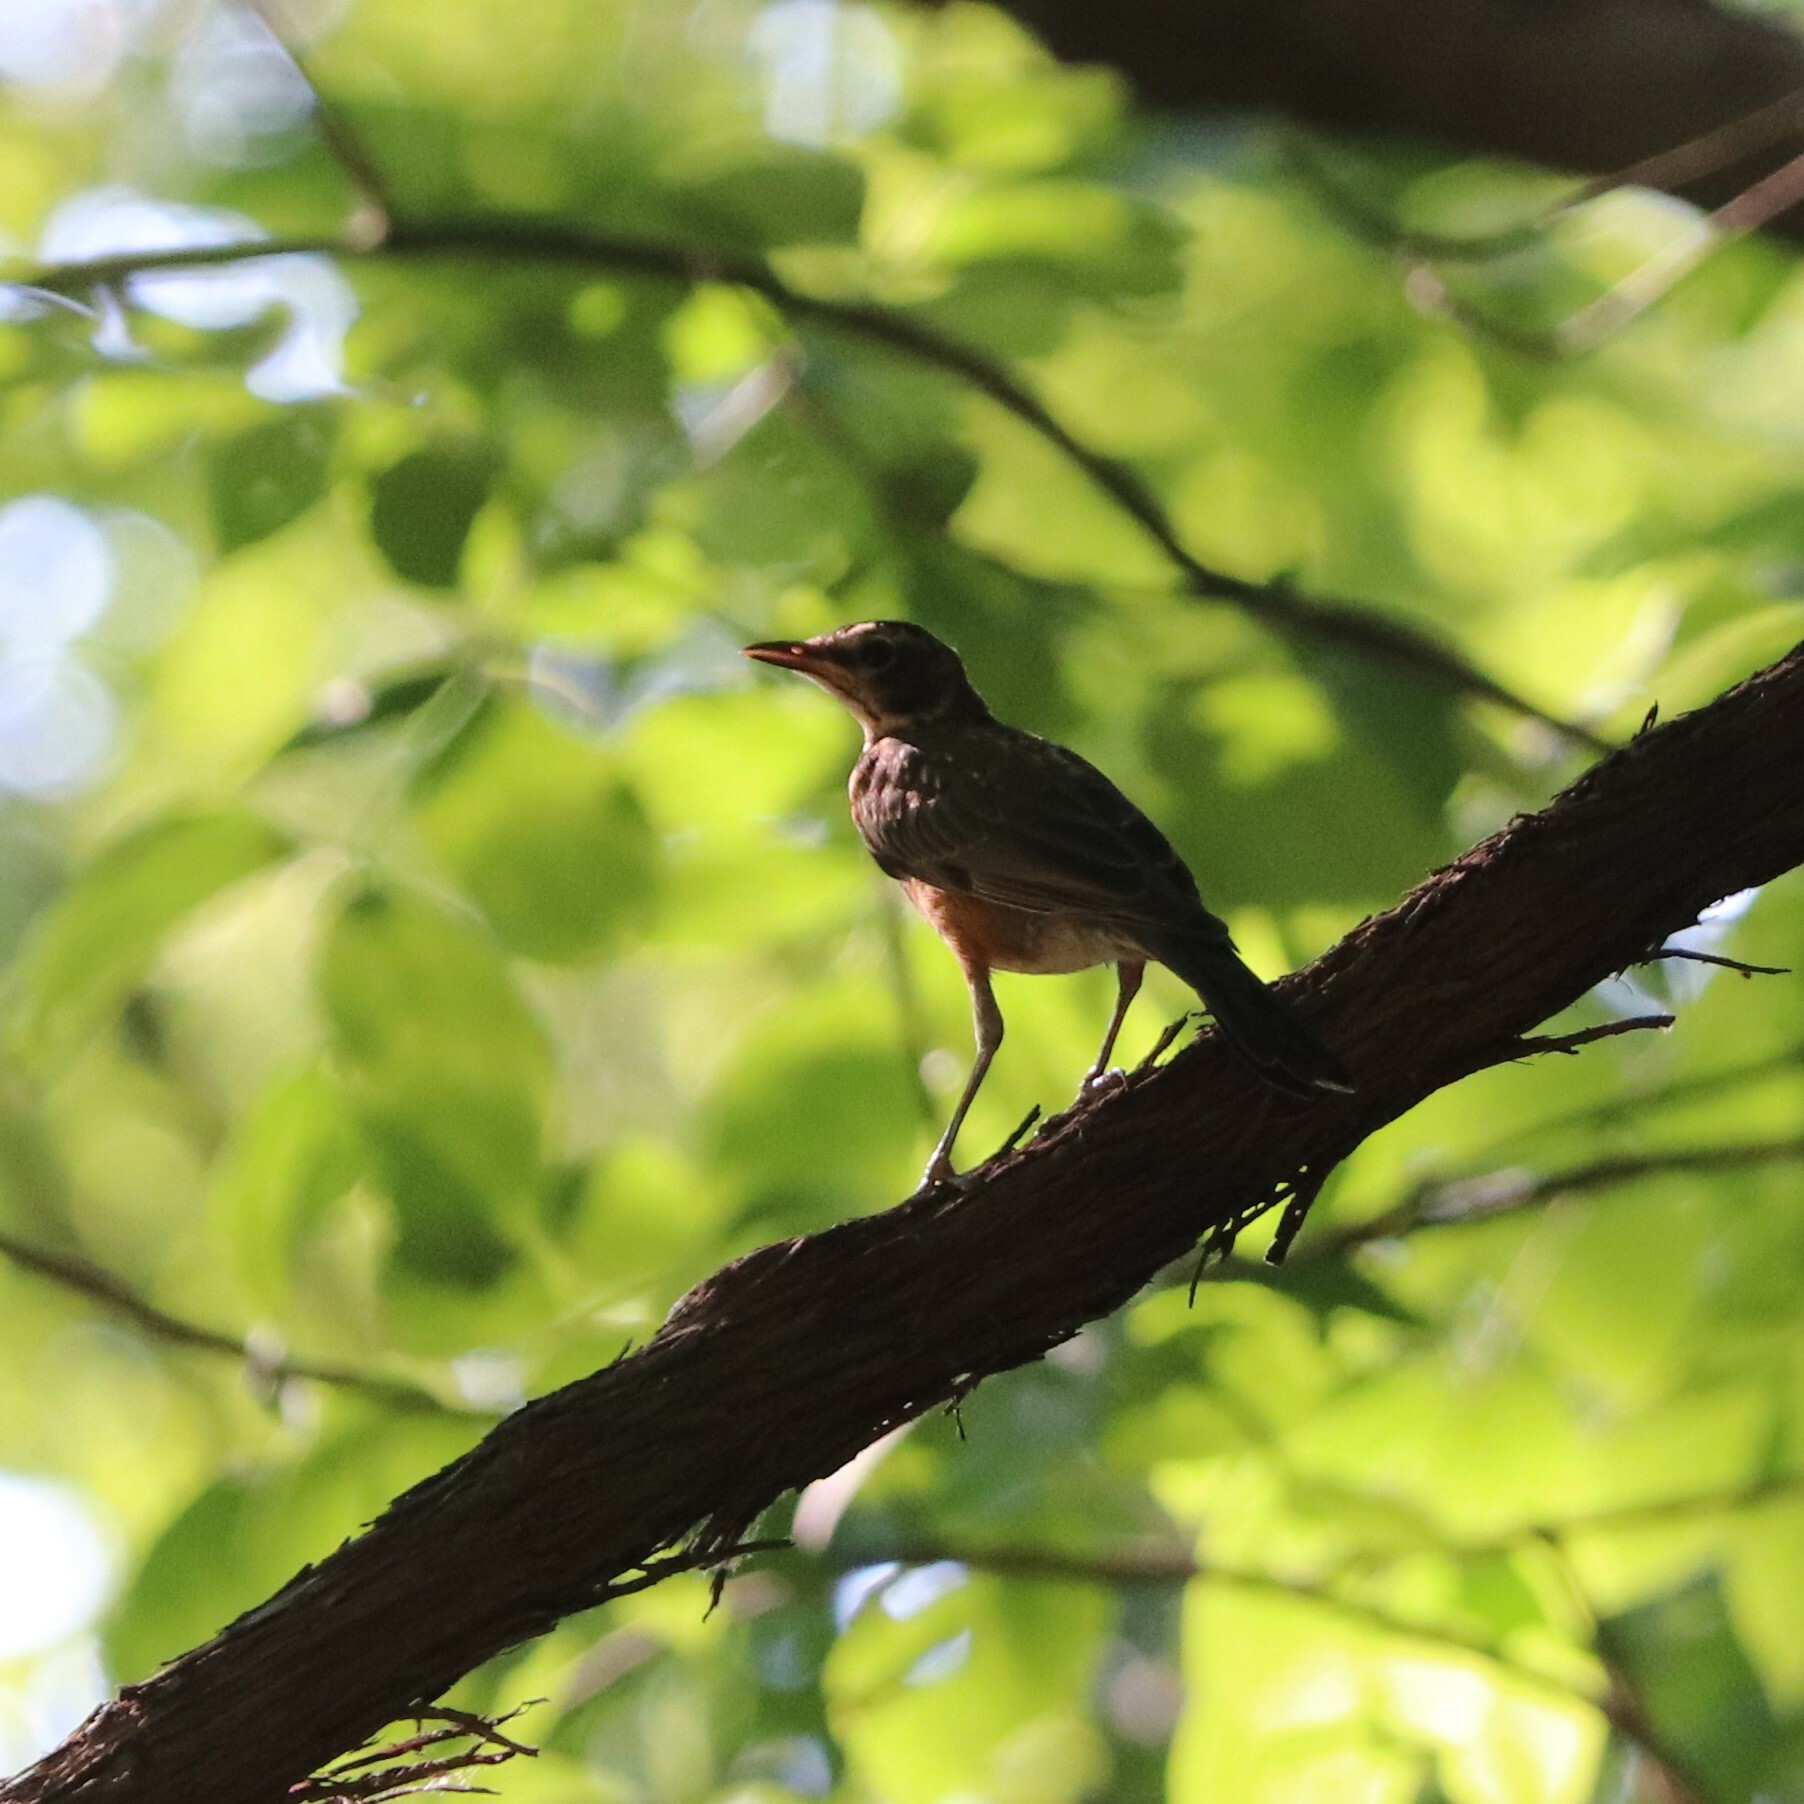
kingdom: Animalia
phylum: Chordata
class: Aves
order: Passeriformes
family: Turdidae
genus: Turdus
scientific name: Turdus migratorius
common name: American robin
